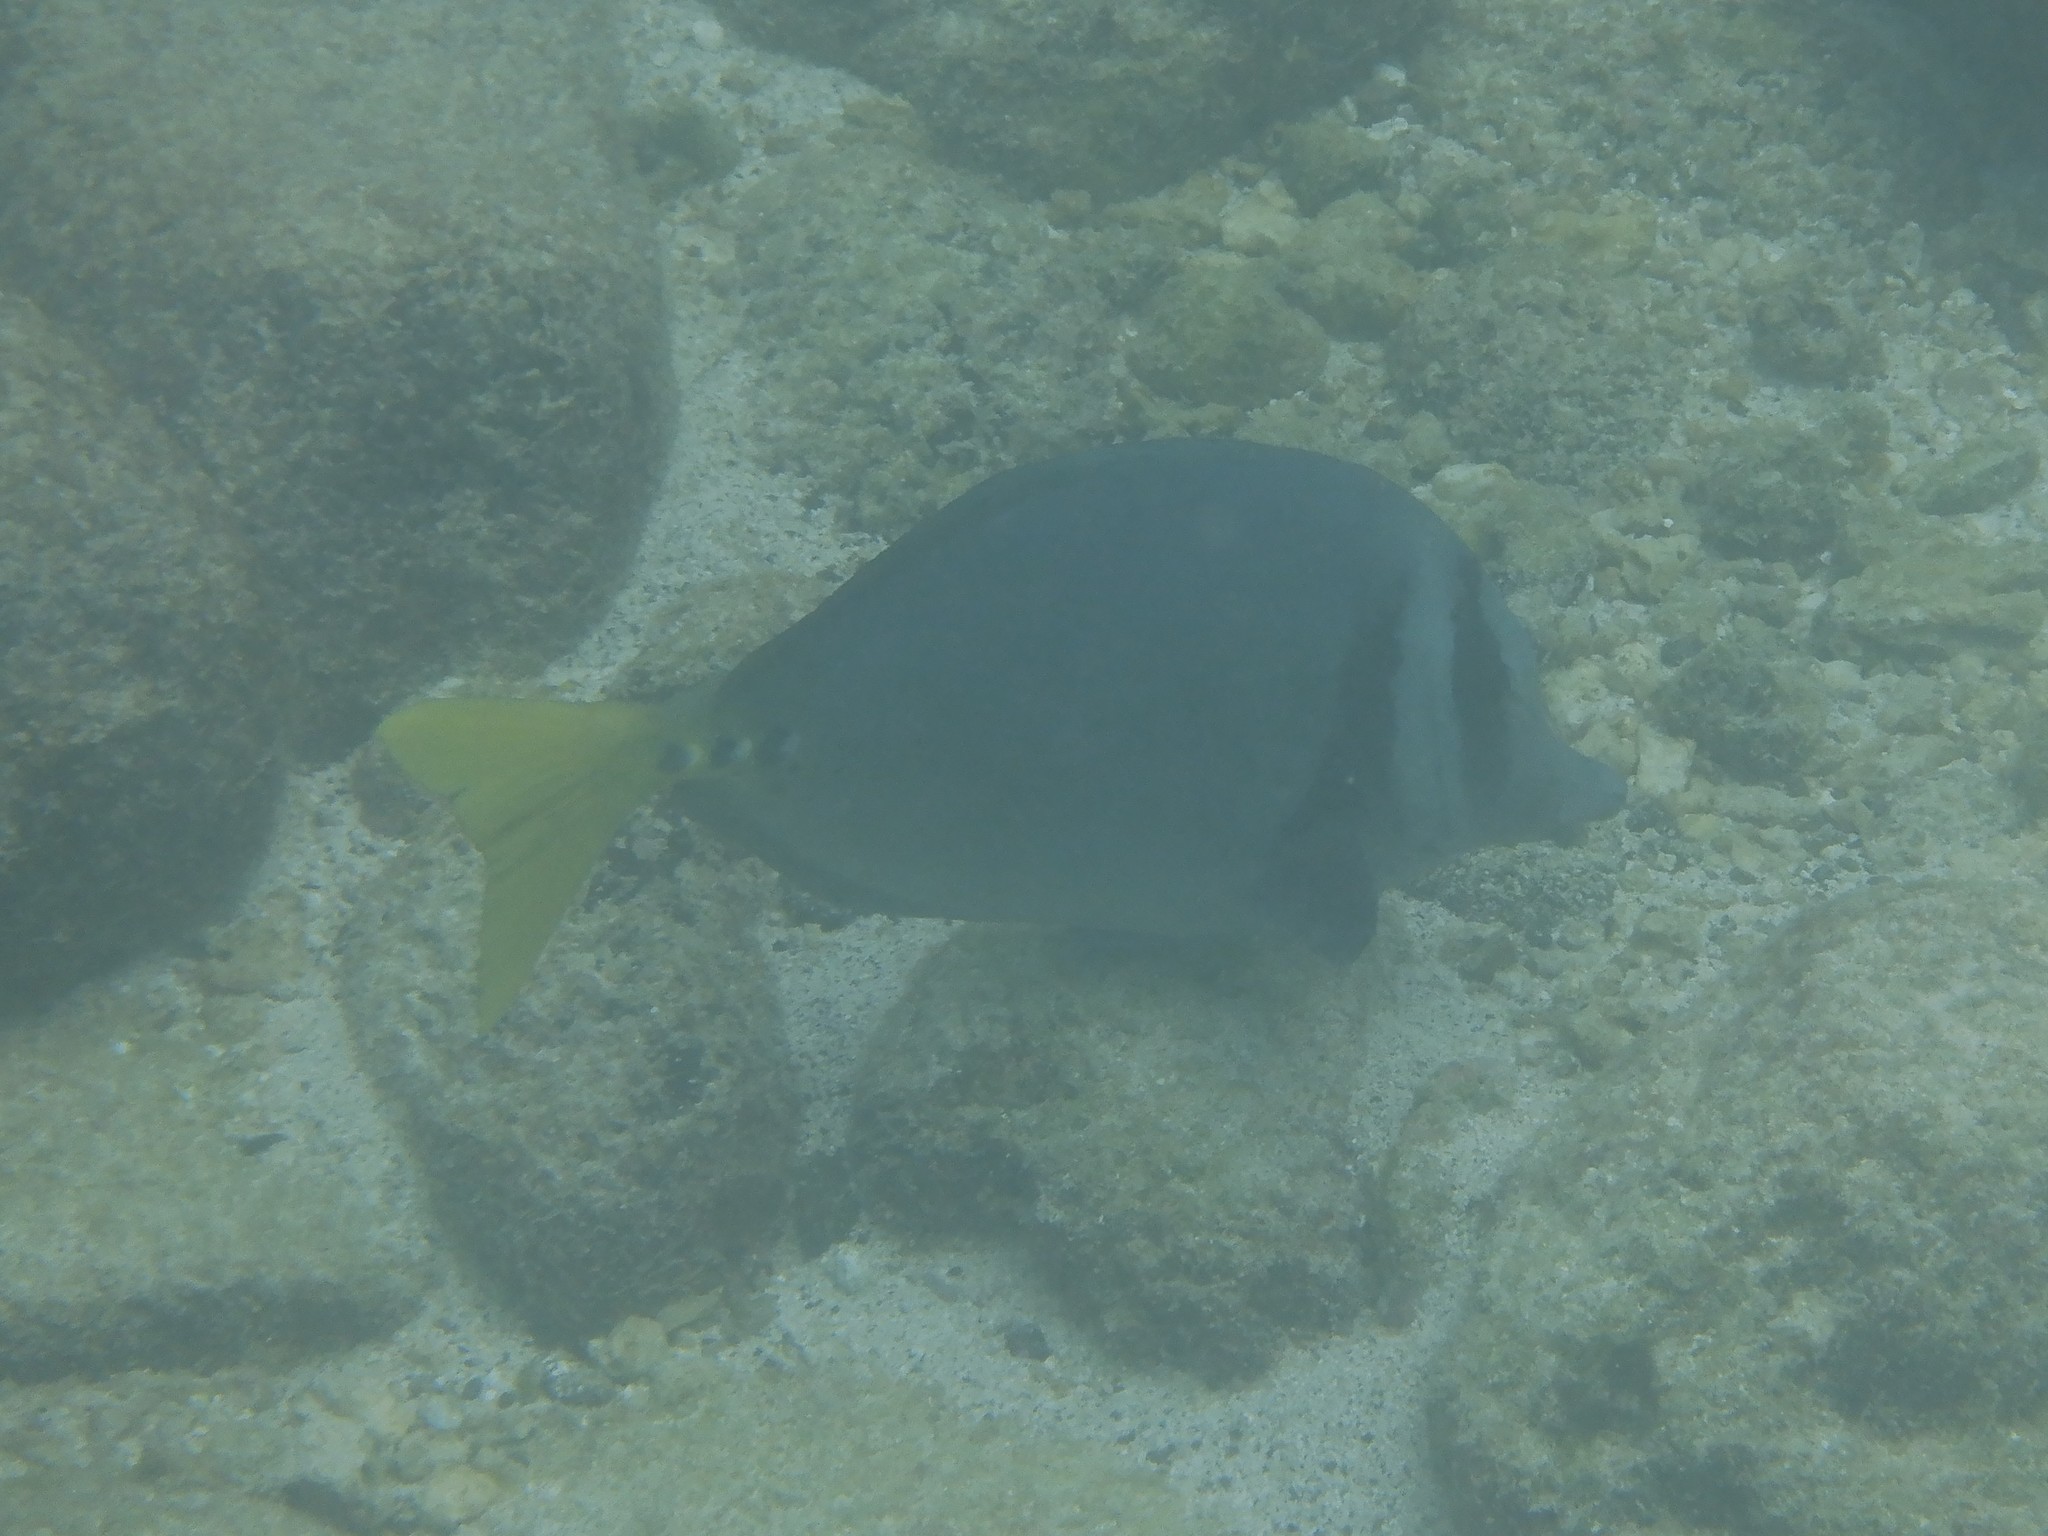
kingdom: Animalia
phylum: Chordata
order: Perciformes
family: Acanthuridae
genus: Prionurus
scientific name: Prionurus laticlavius
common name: Razor surgeonfish
